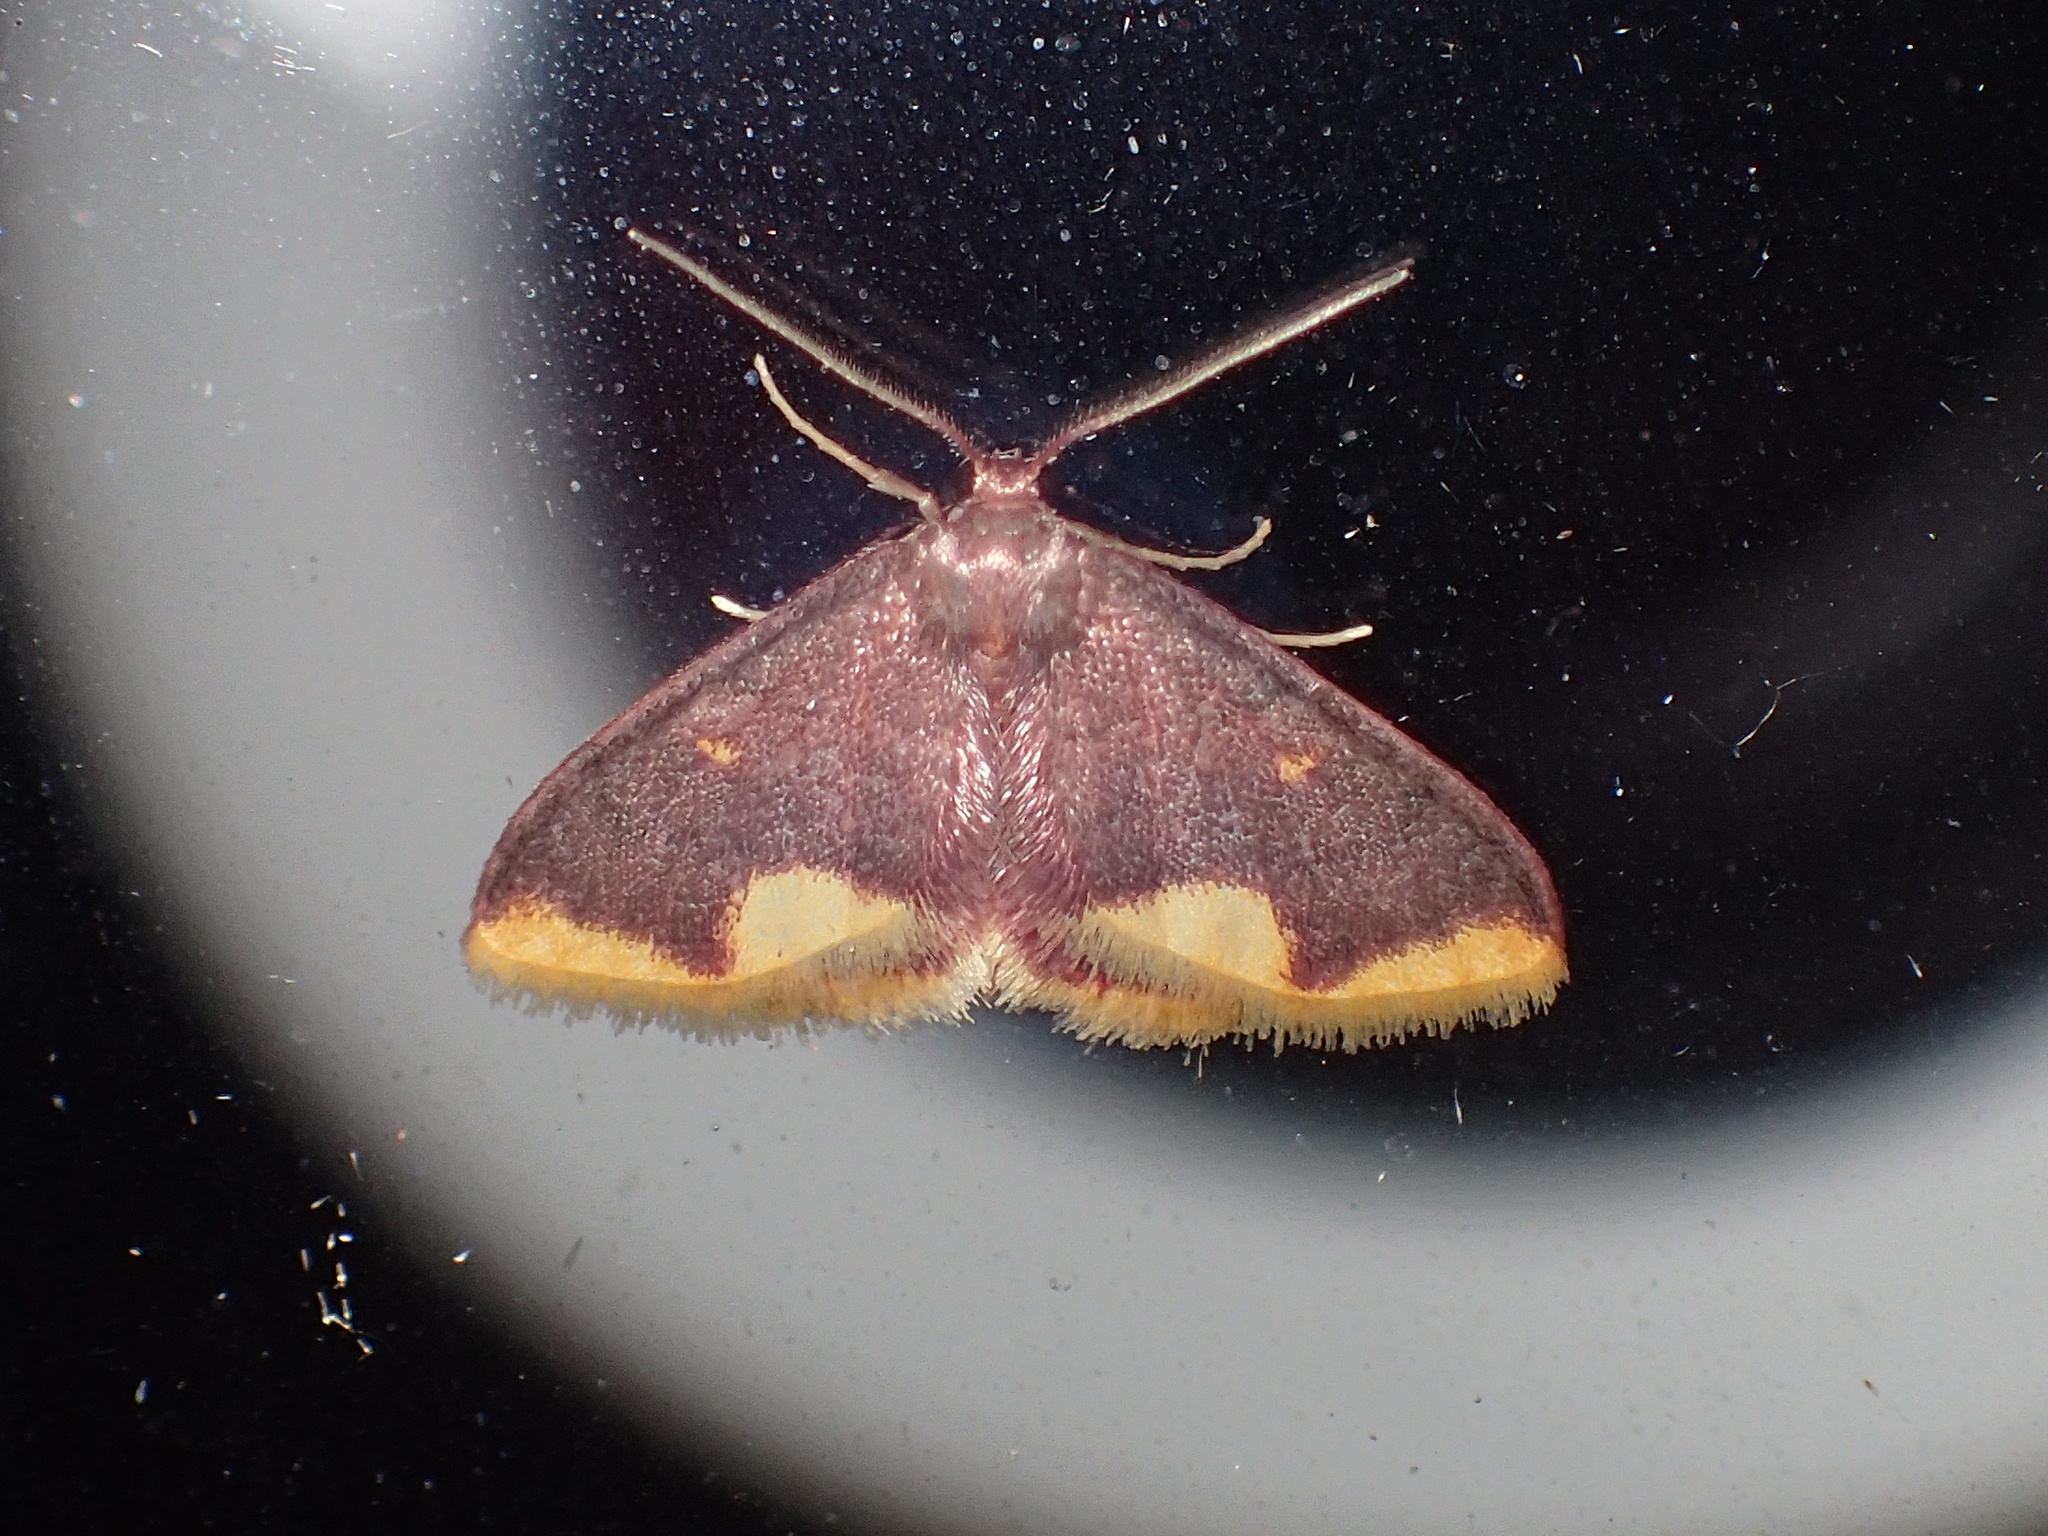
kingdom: Animalia
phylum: Arthropoda
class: Insecta
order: Lepidoptera
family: Geometridae
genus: Lophosis
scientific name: Lophosis labeculata
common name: Stained lophosis moth
